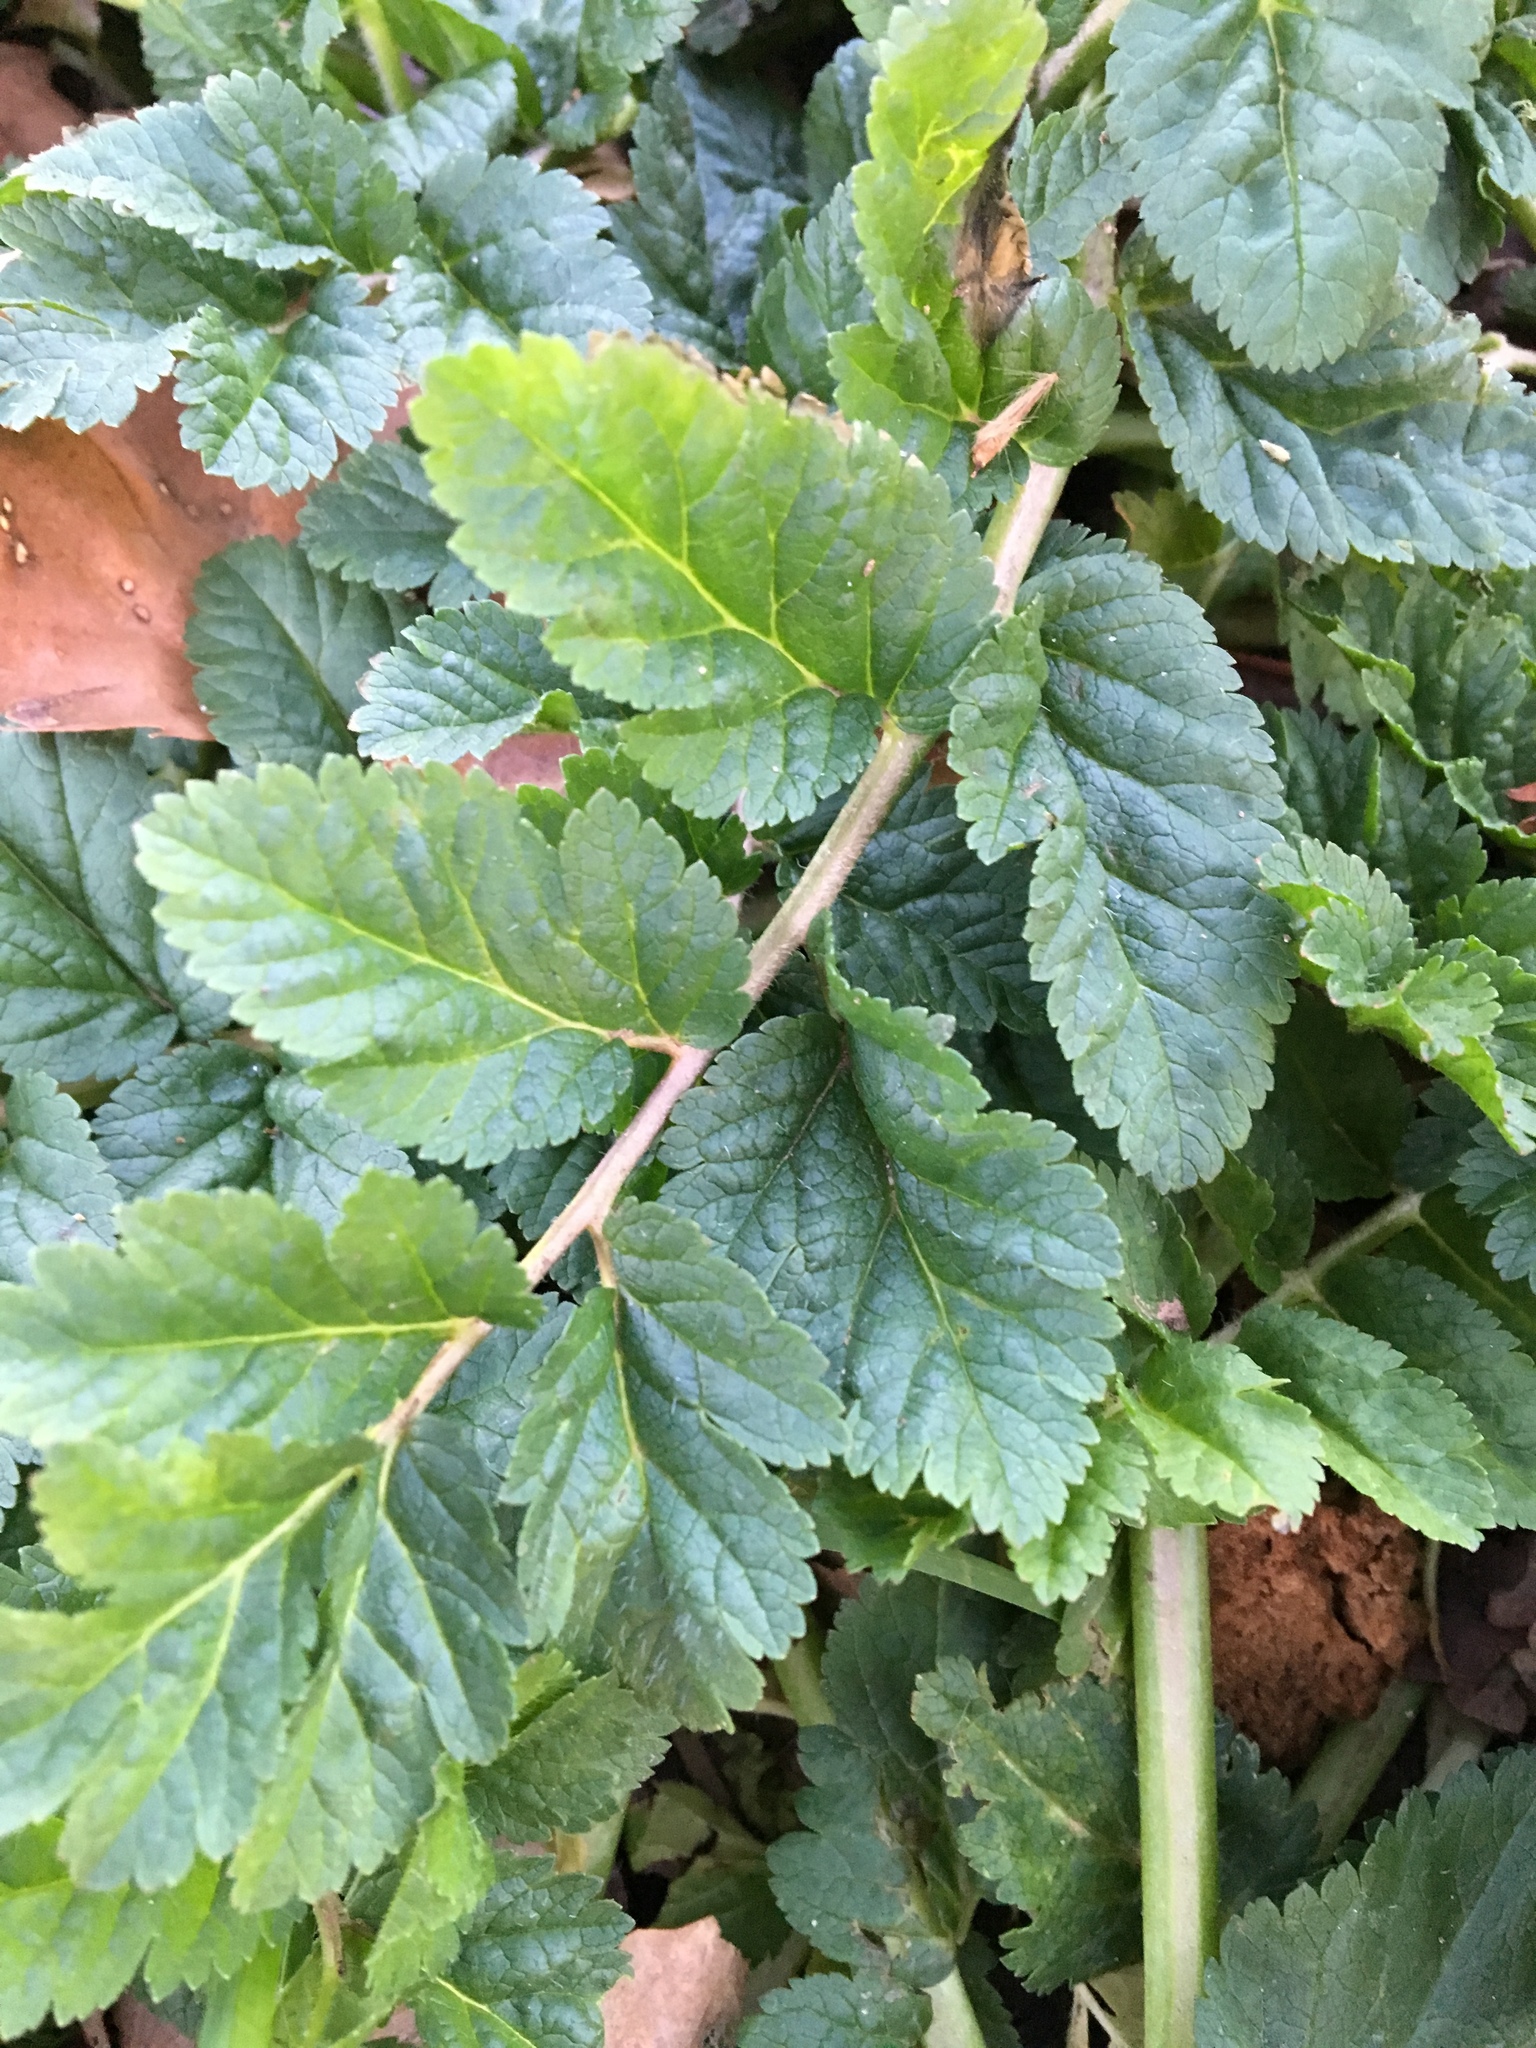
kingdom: Plantae
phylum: Tracheophyta
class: Magnoliopsida
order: Geraniales
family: Geraniaceae
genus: Erodium
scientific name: Erodium moschatum
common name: Musk stork's-bill
